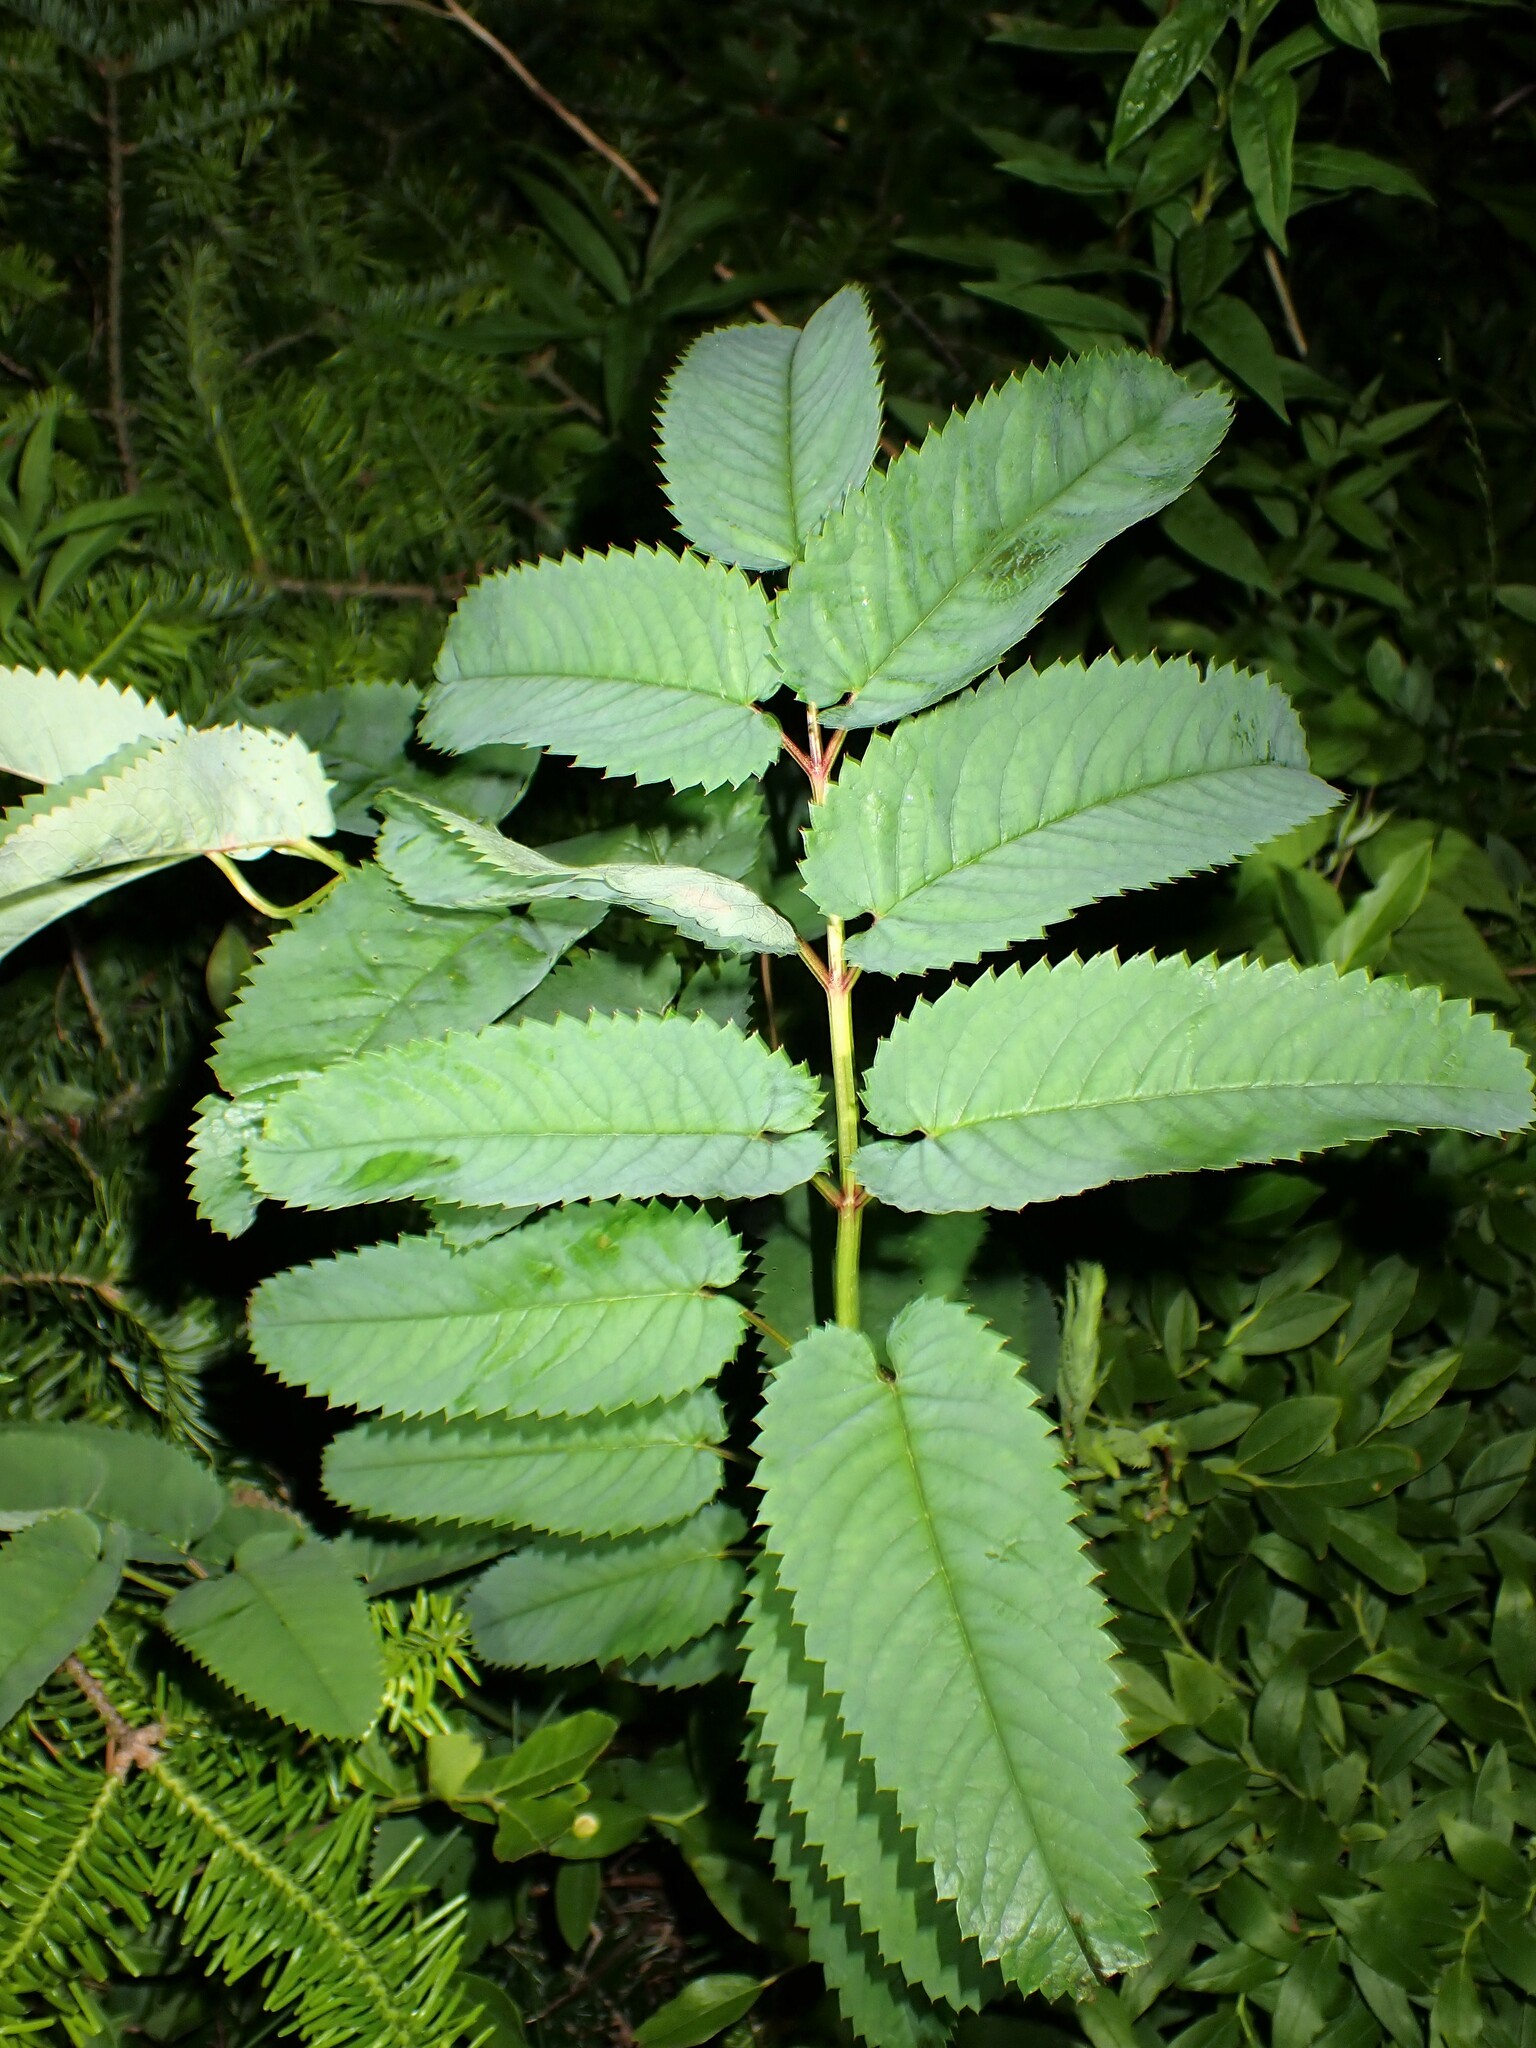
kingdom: Plantae
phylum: Tracheophyta
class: Magnoliopsida
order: Rosales
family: Rosaceae
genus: Sanguisorba
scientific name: Sanguisorba canadensis
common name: White burnet
